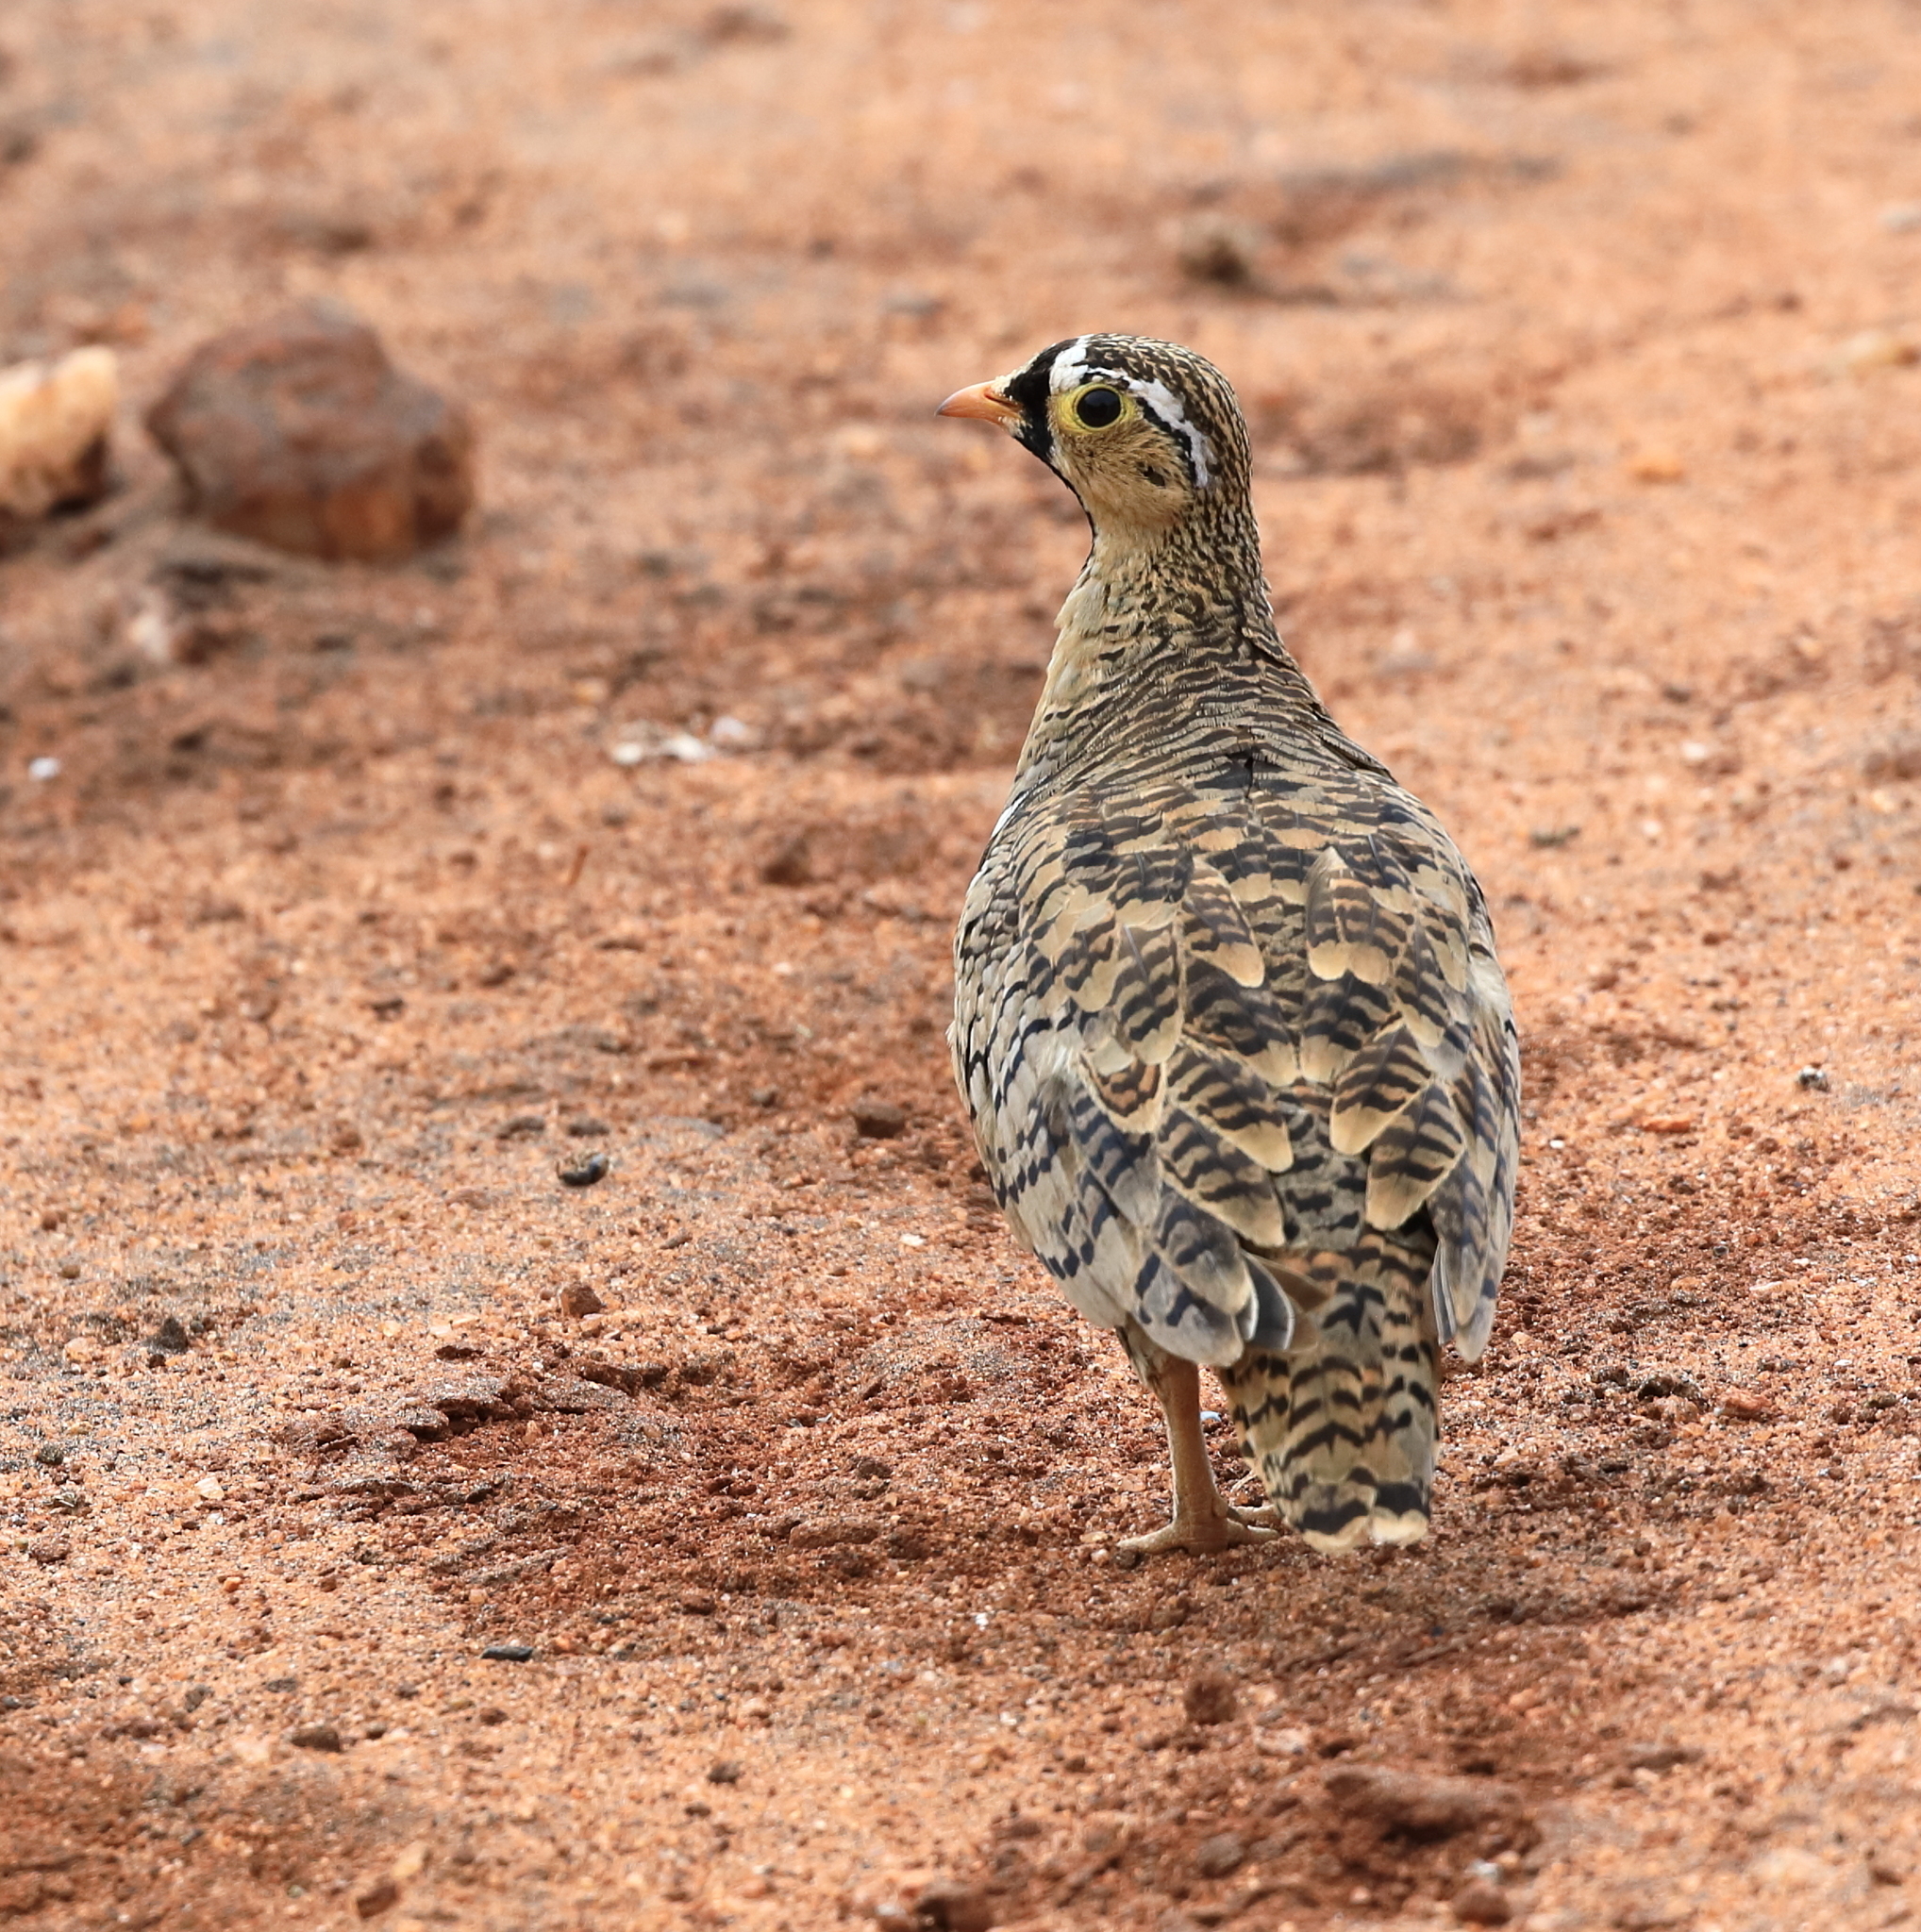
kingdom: Animalia
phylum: Chordata
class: Aves
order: Pteroclidiformes
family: Pteroclididae
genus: Pterocles
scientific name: Pterocles decoratus
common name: Black-faced sandgrouse
